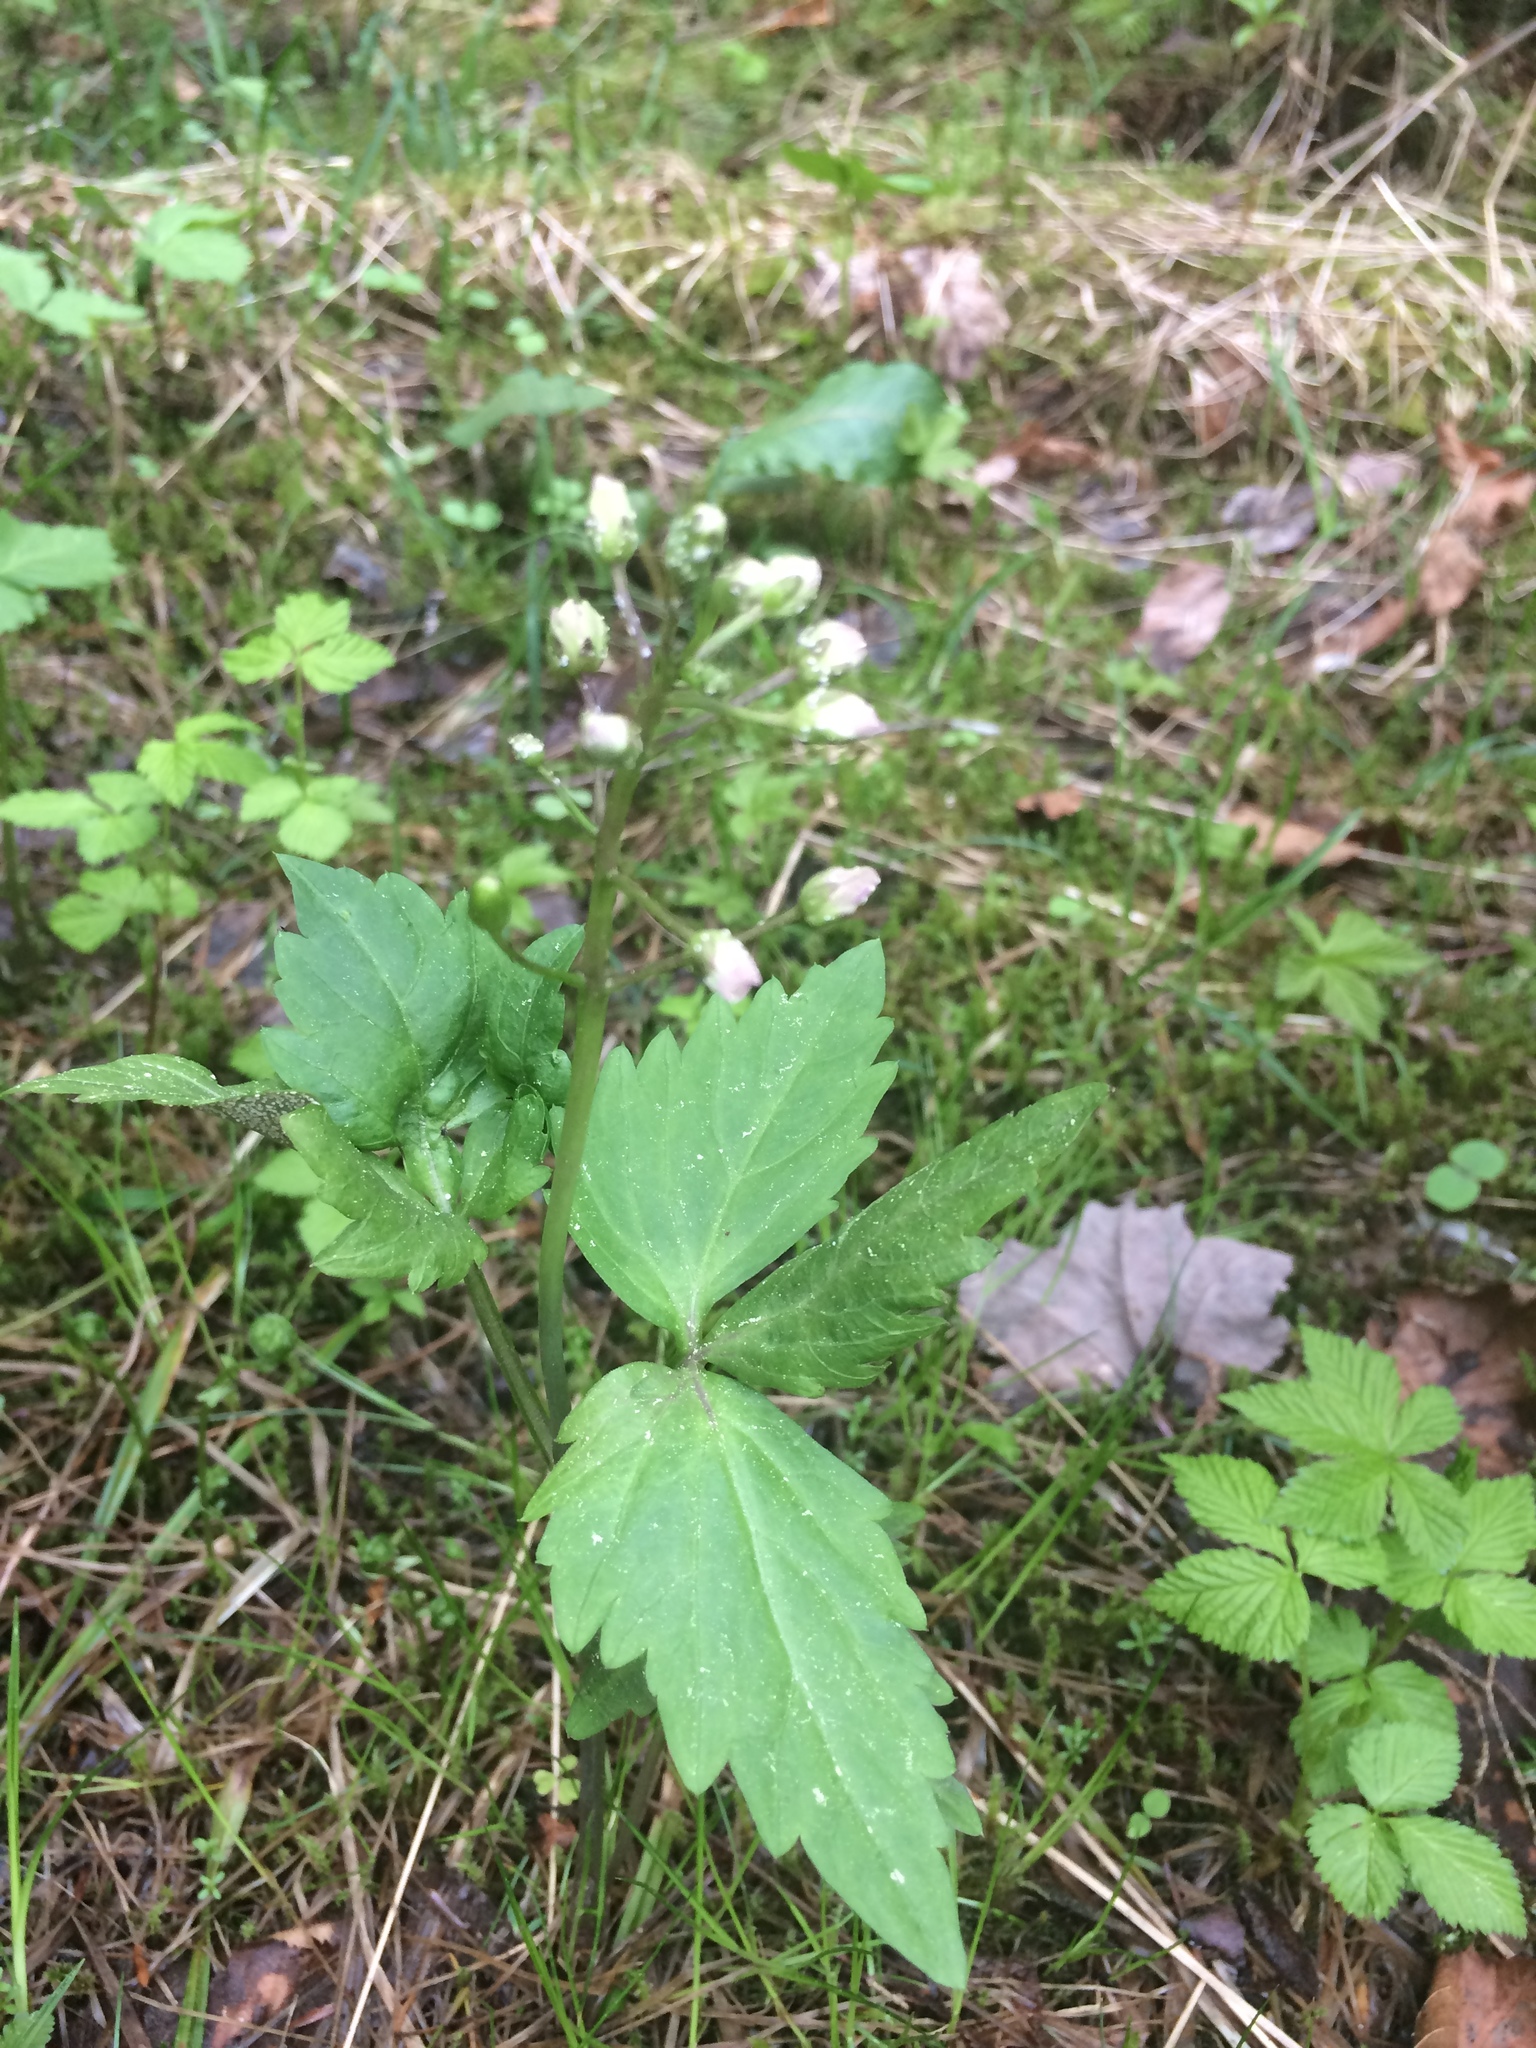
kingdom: Plantae
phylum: Tracheophyta
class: Magnoliopsida
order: Brassicales
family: Brassicaceae
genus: Cardamine
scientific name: Cardamine diphylla
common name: Broad-leaved toothwort
